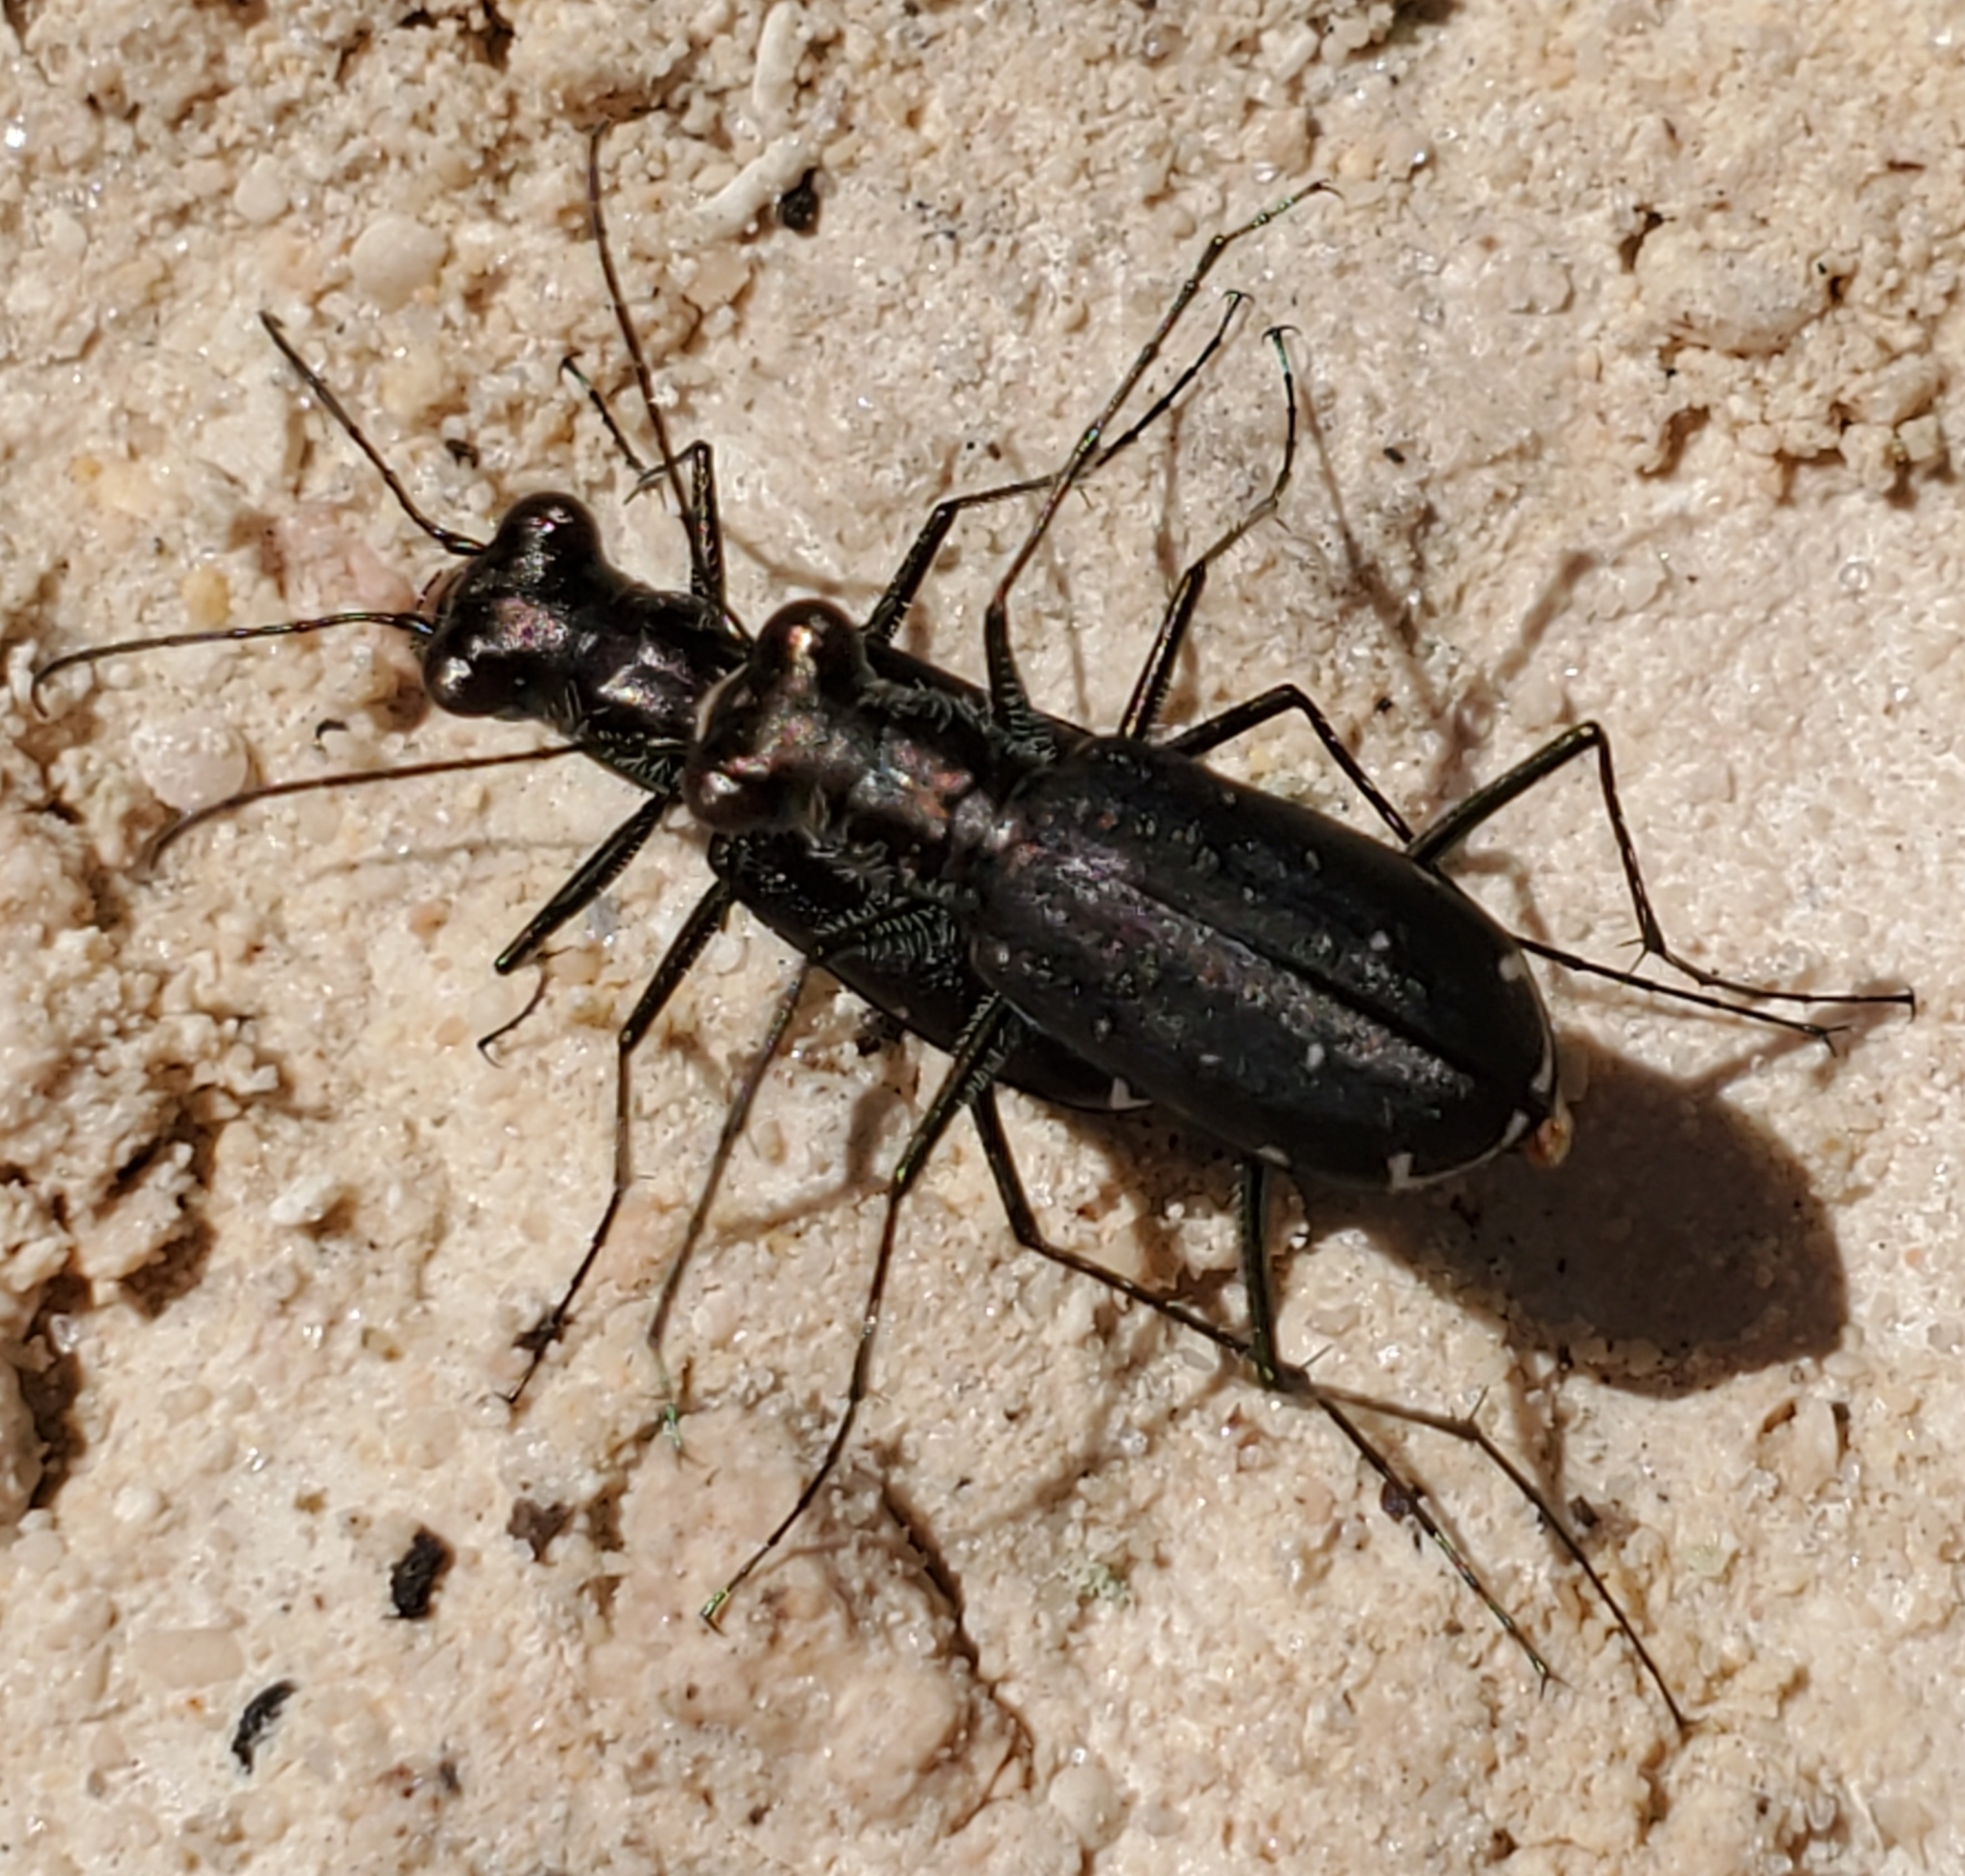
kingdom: Animalia
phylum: Arthropoda
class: Insecta
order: Coleoptera
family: Carabidae
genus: Cicindela
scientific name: Cicindela punctulata
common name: Punctured tiger beetle
